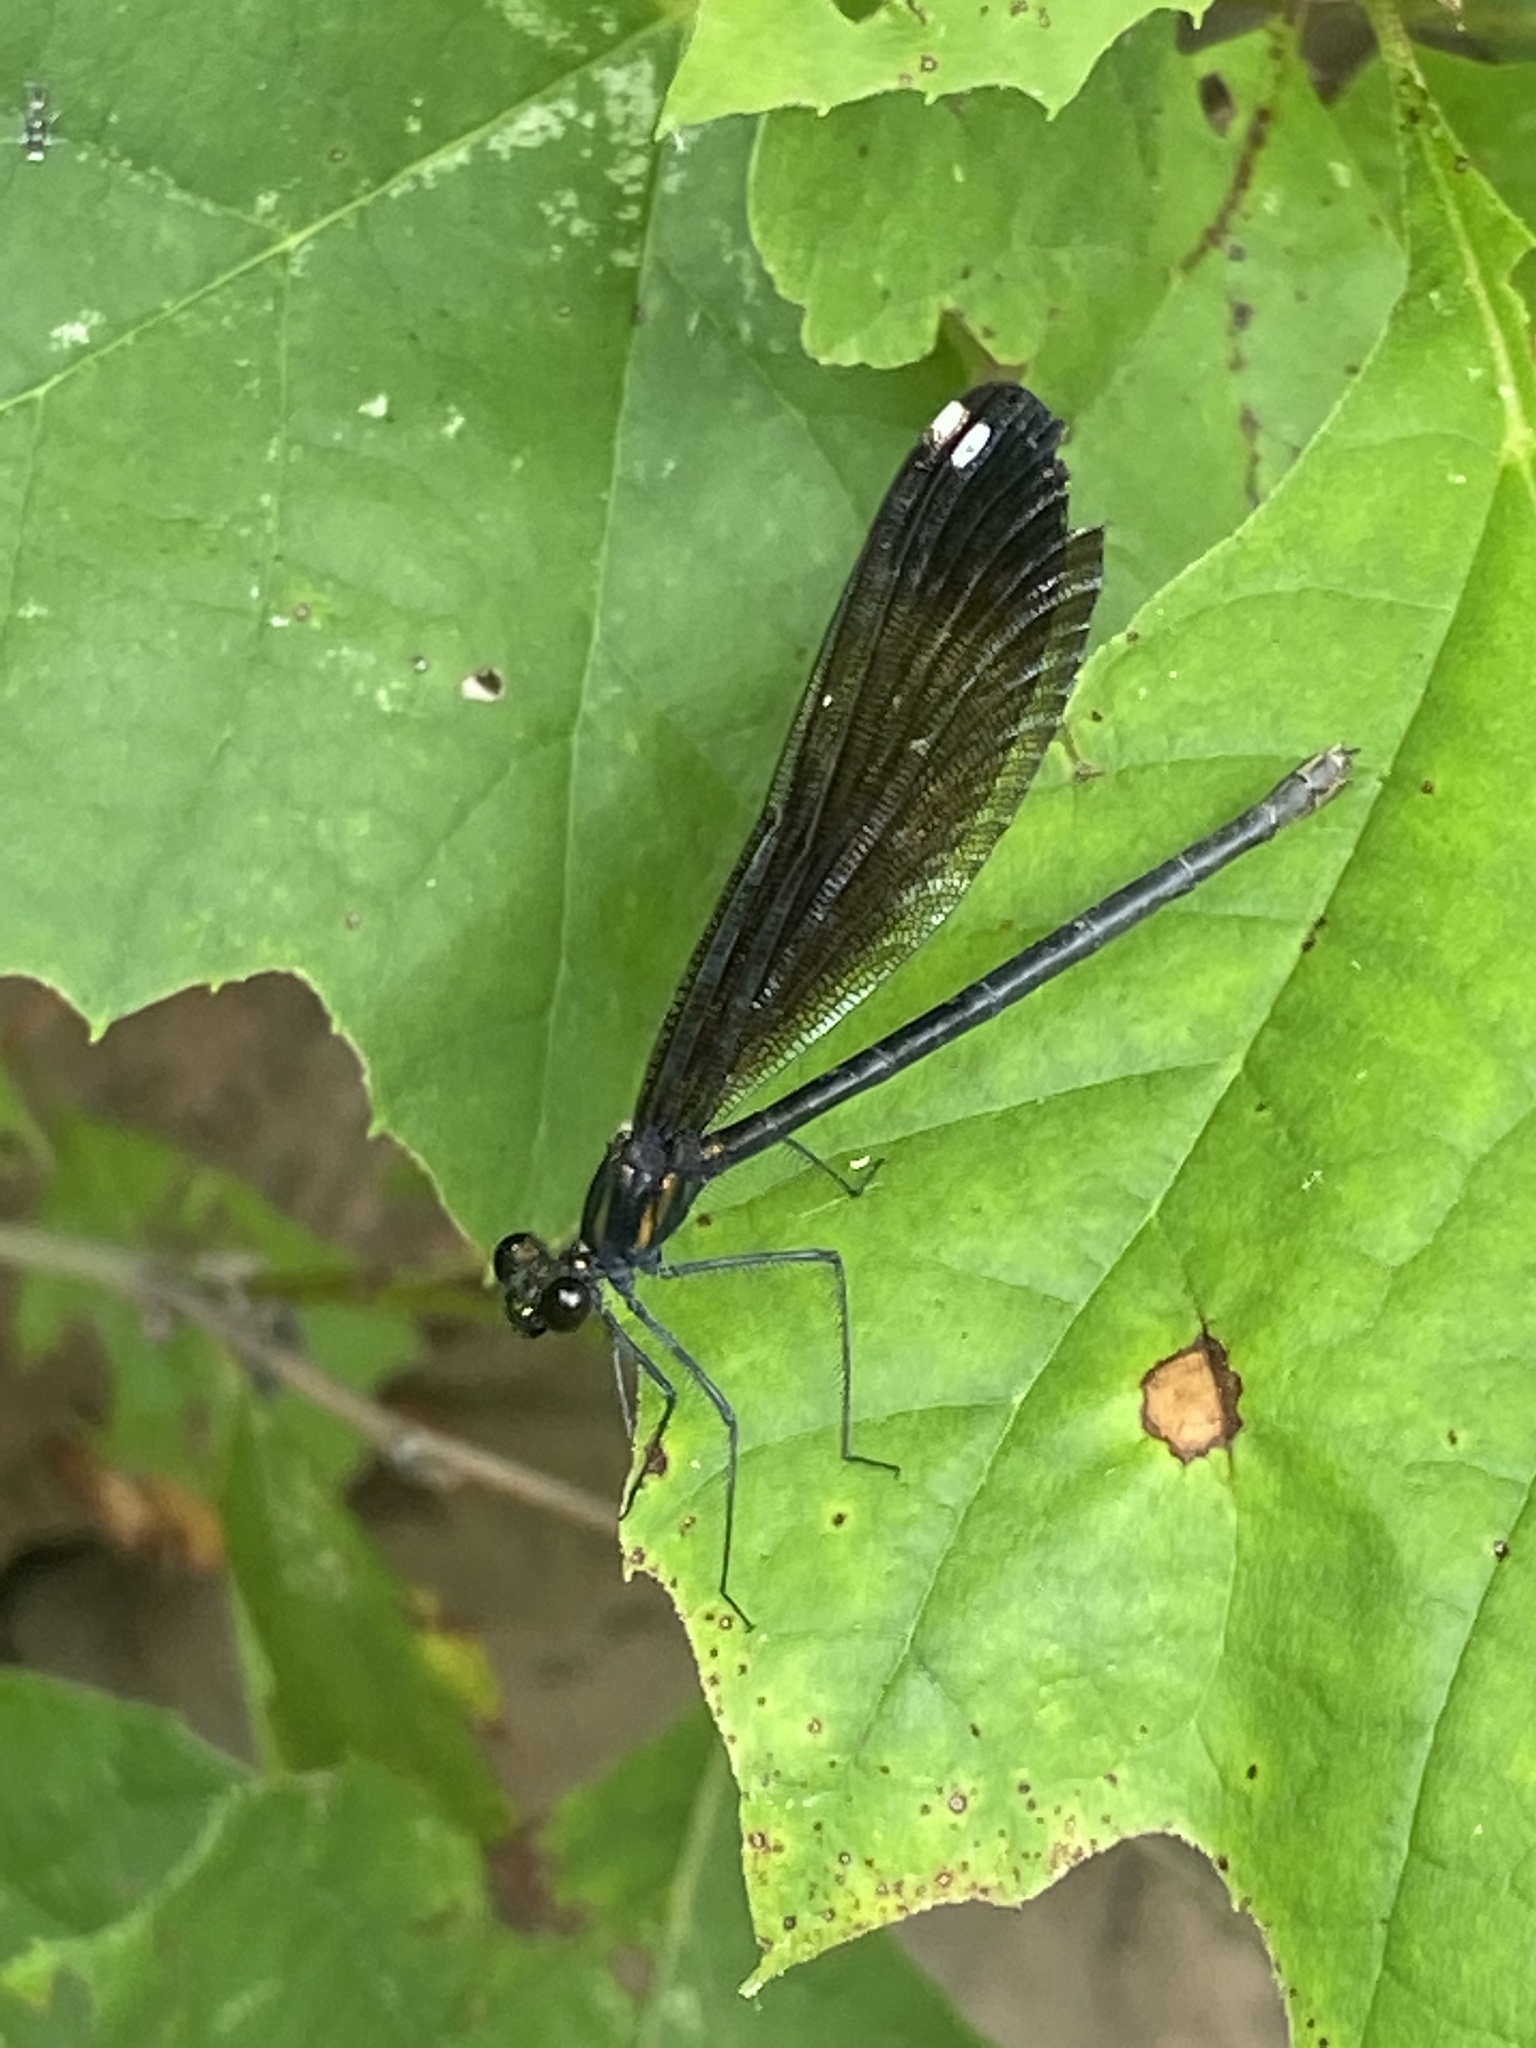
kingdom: Animalia
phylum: Arthropoda
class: Insecta
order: Odonata
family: Calopterygidae
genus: Calopteryx
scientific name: Calopteryx maculata
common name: Ebony jewelwing
